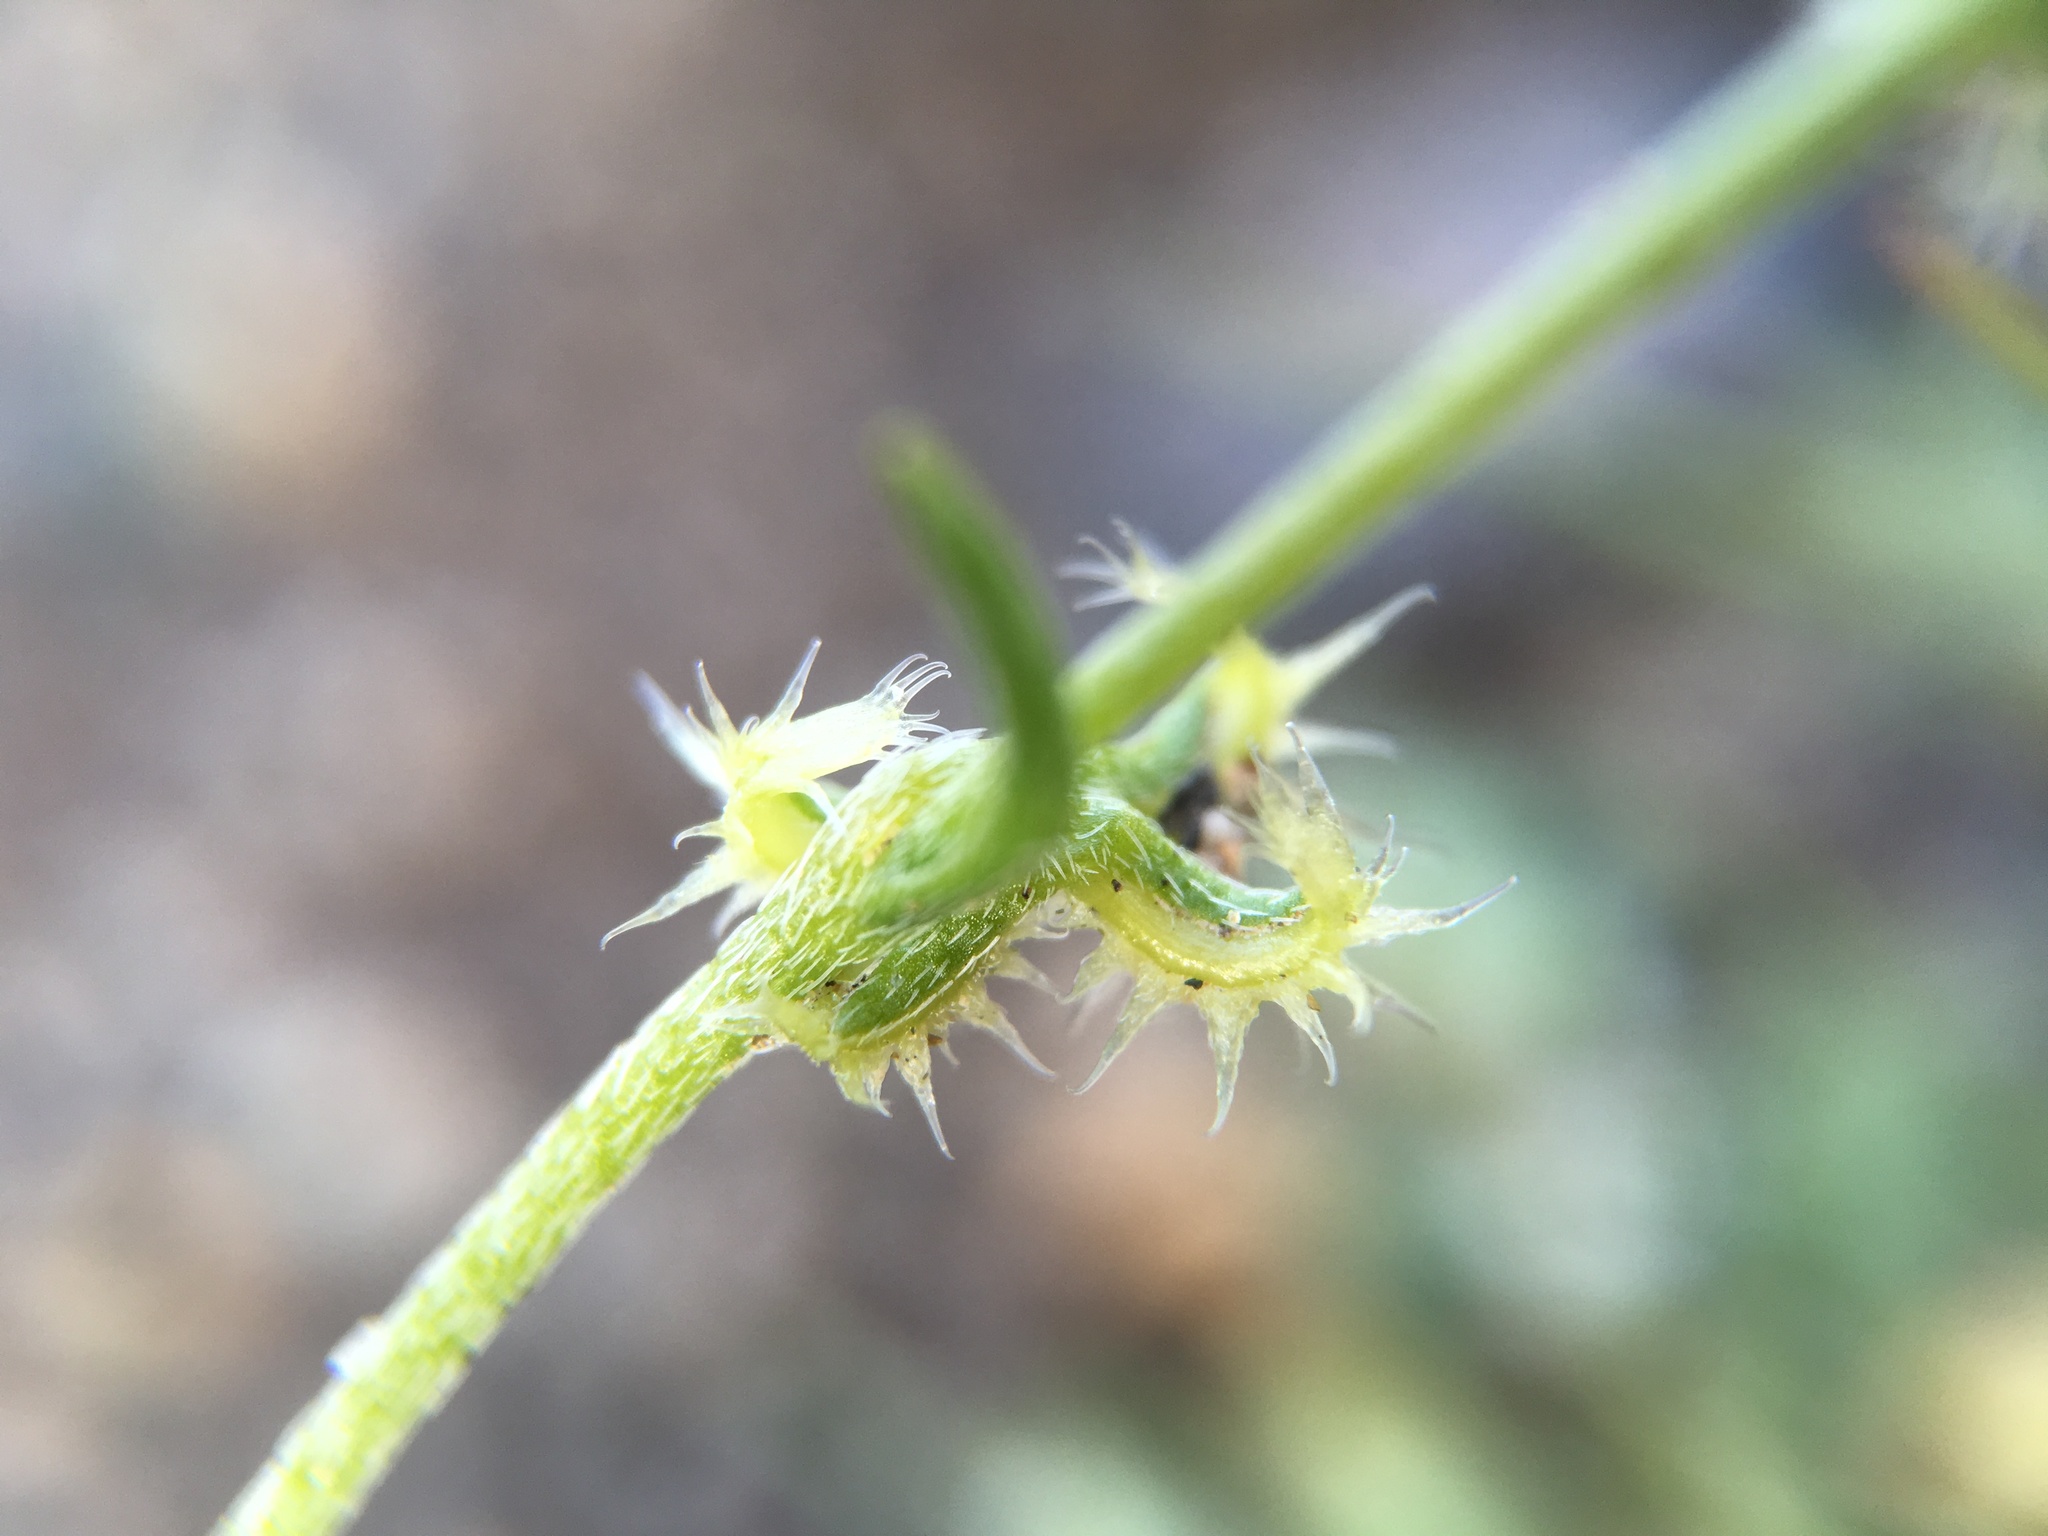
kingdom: Plantae
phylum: Tracheophyta
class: Magnoliopsida
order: Boraginales
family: Boraginaceae
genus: Pectocarya
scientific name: Pectocarya recurvata
